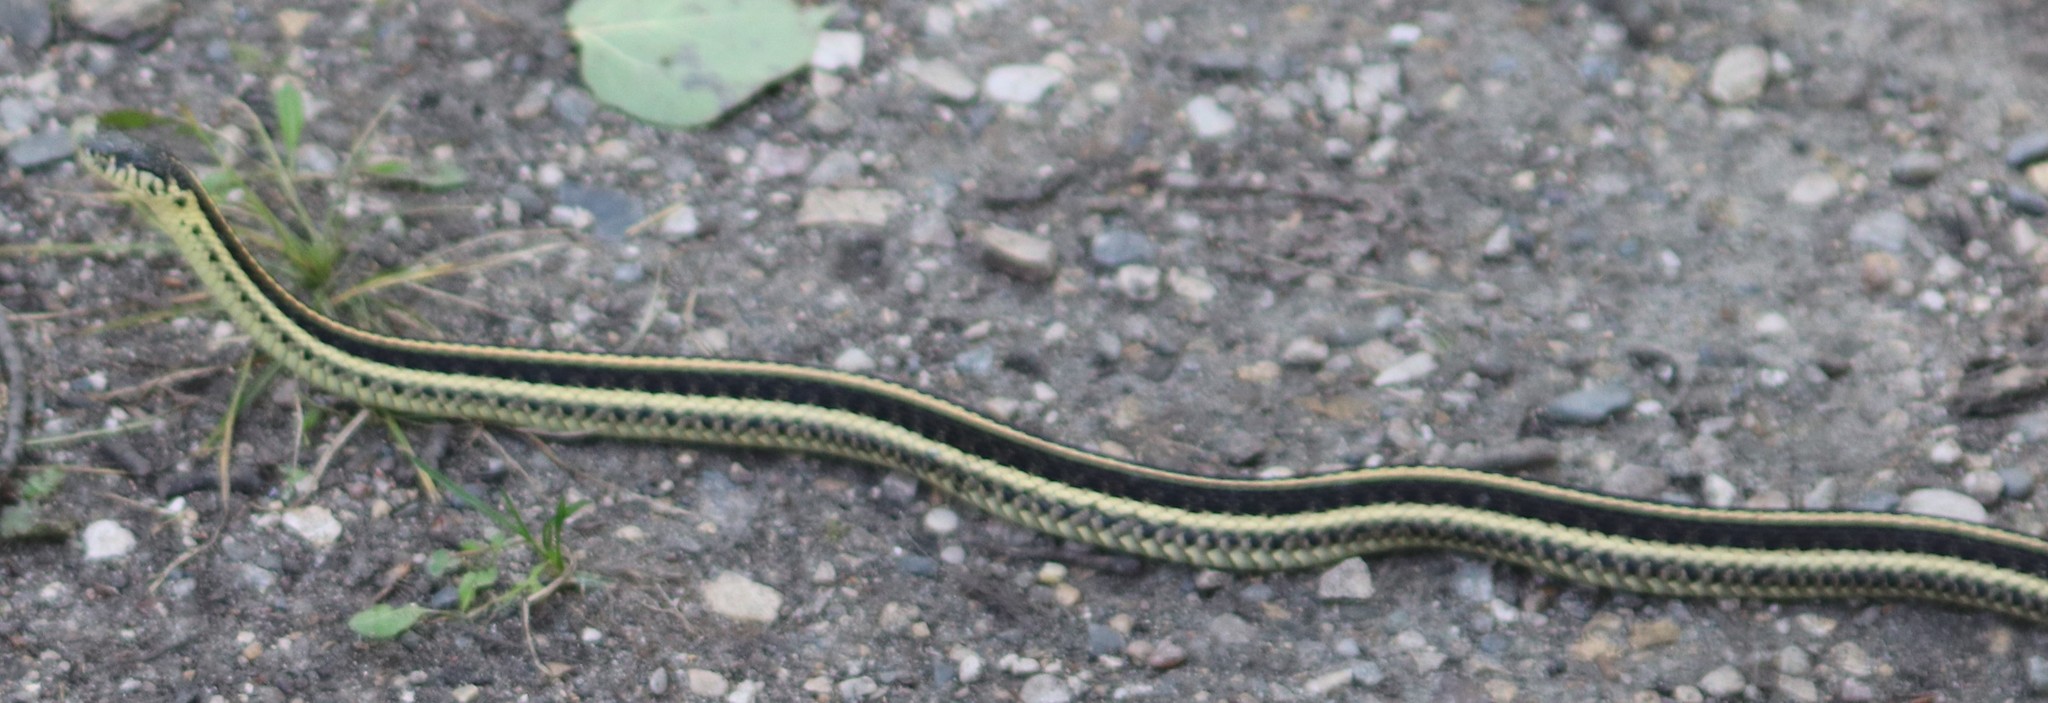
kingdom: Animalia
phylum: Chordata
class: Squamata
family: Colubridae
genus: Thamnophis
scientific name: Thamnophis radix
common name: Plains garter snake
